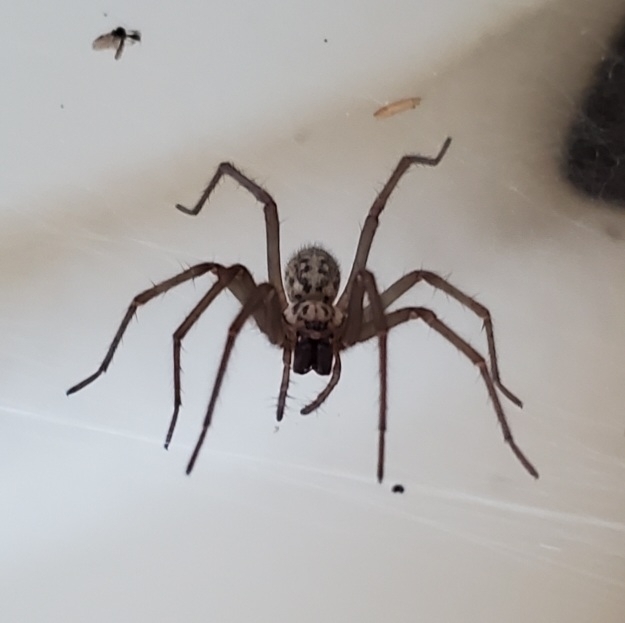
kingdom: Animalia
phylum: Arthropoda
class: Arachnida
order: Araneae
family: Agelenidae
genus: Eratigena
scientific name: Eratigena duellica
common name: Giant house spider
